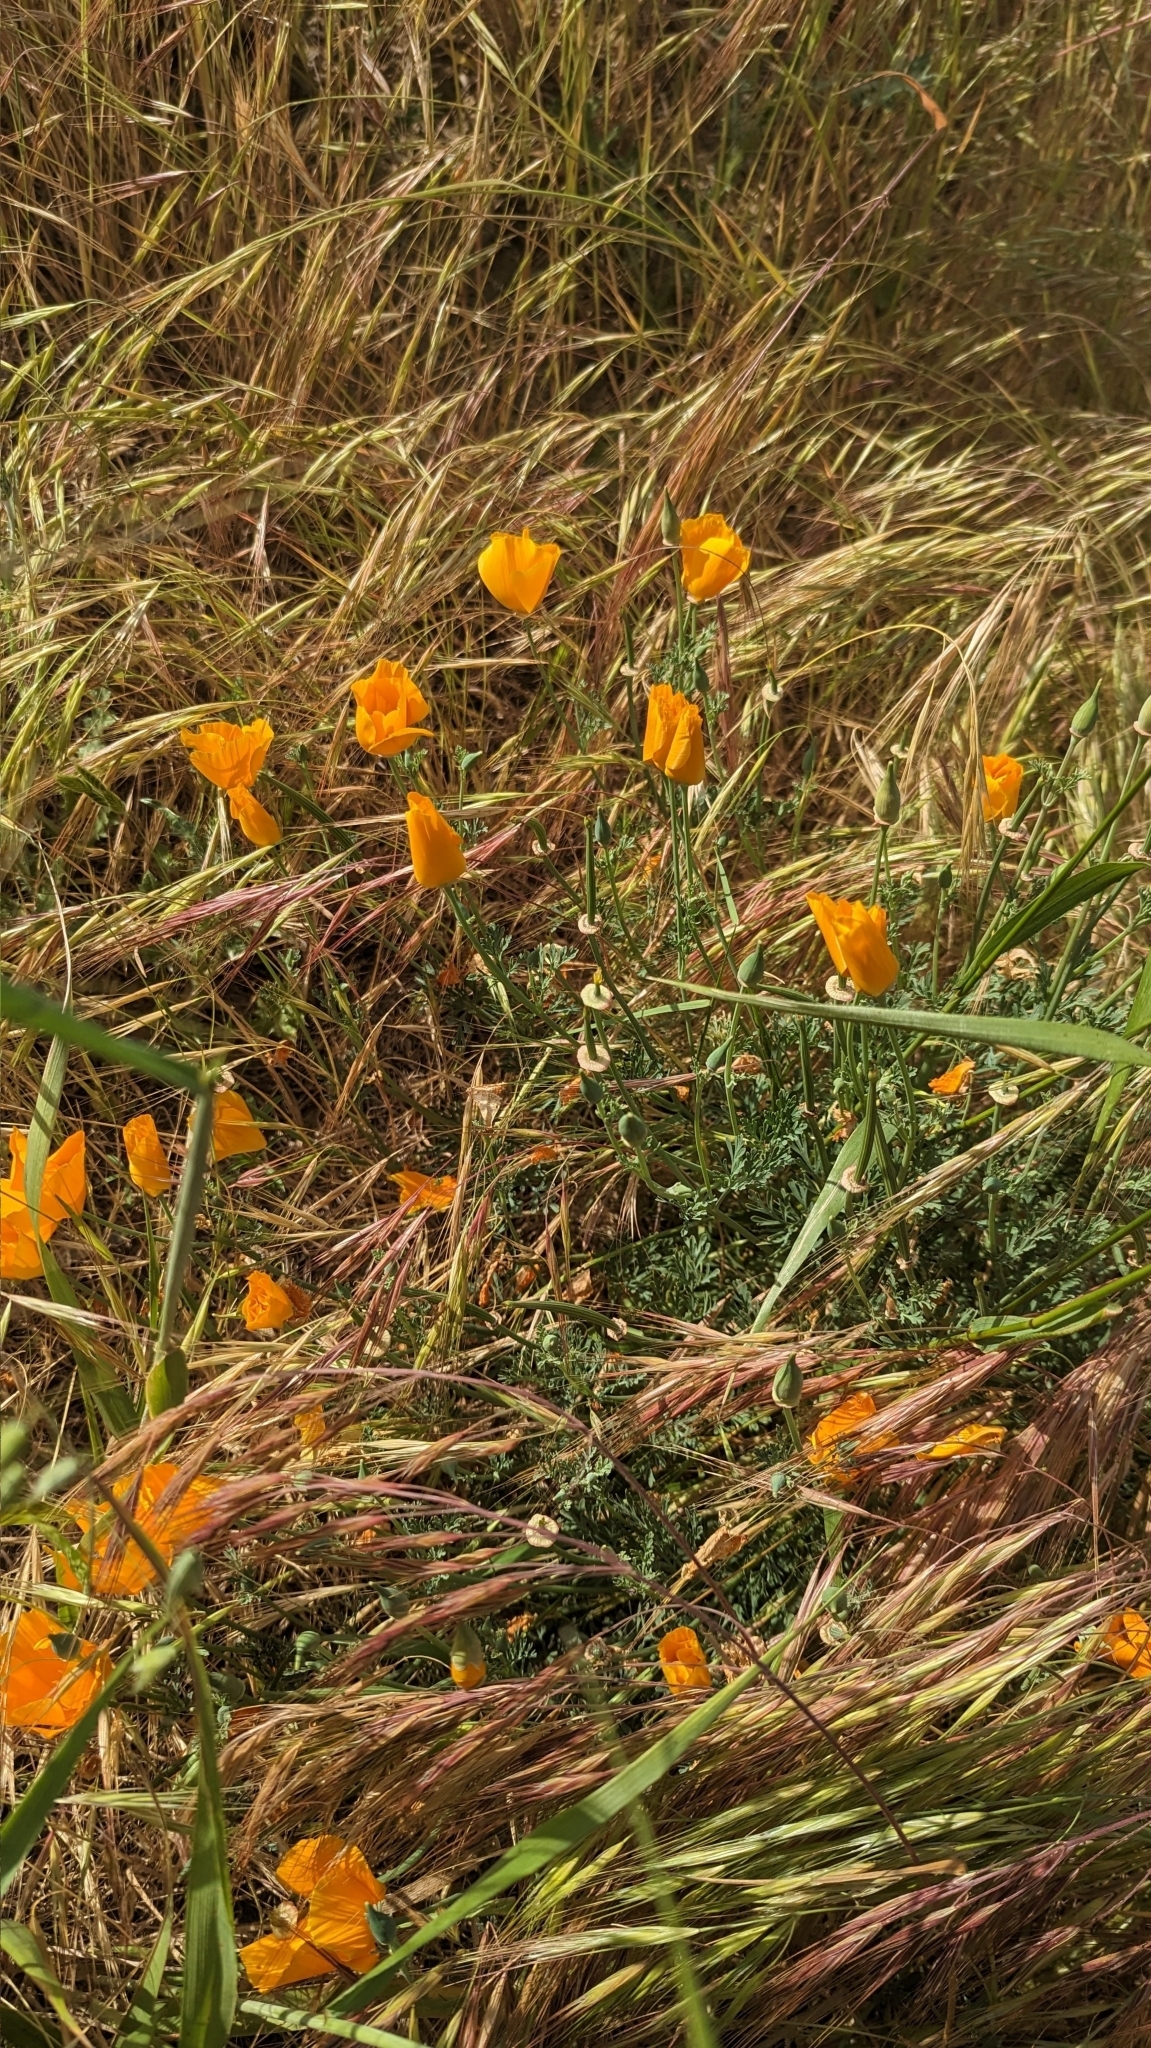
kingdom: Plantae
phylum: Tracheophyta
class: Magnoliopsida
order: Ranunculales
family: Papaveraceae
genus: Eschscholzia
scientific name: Eschscholzia californica
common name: California poppy
